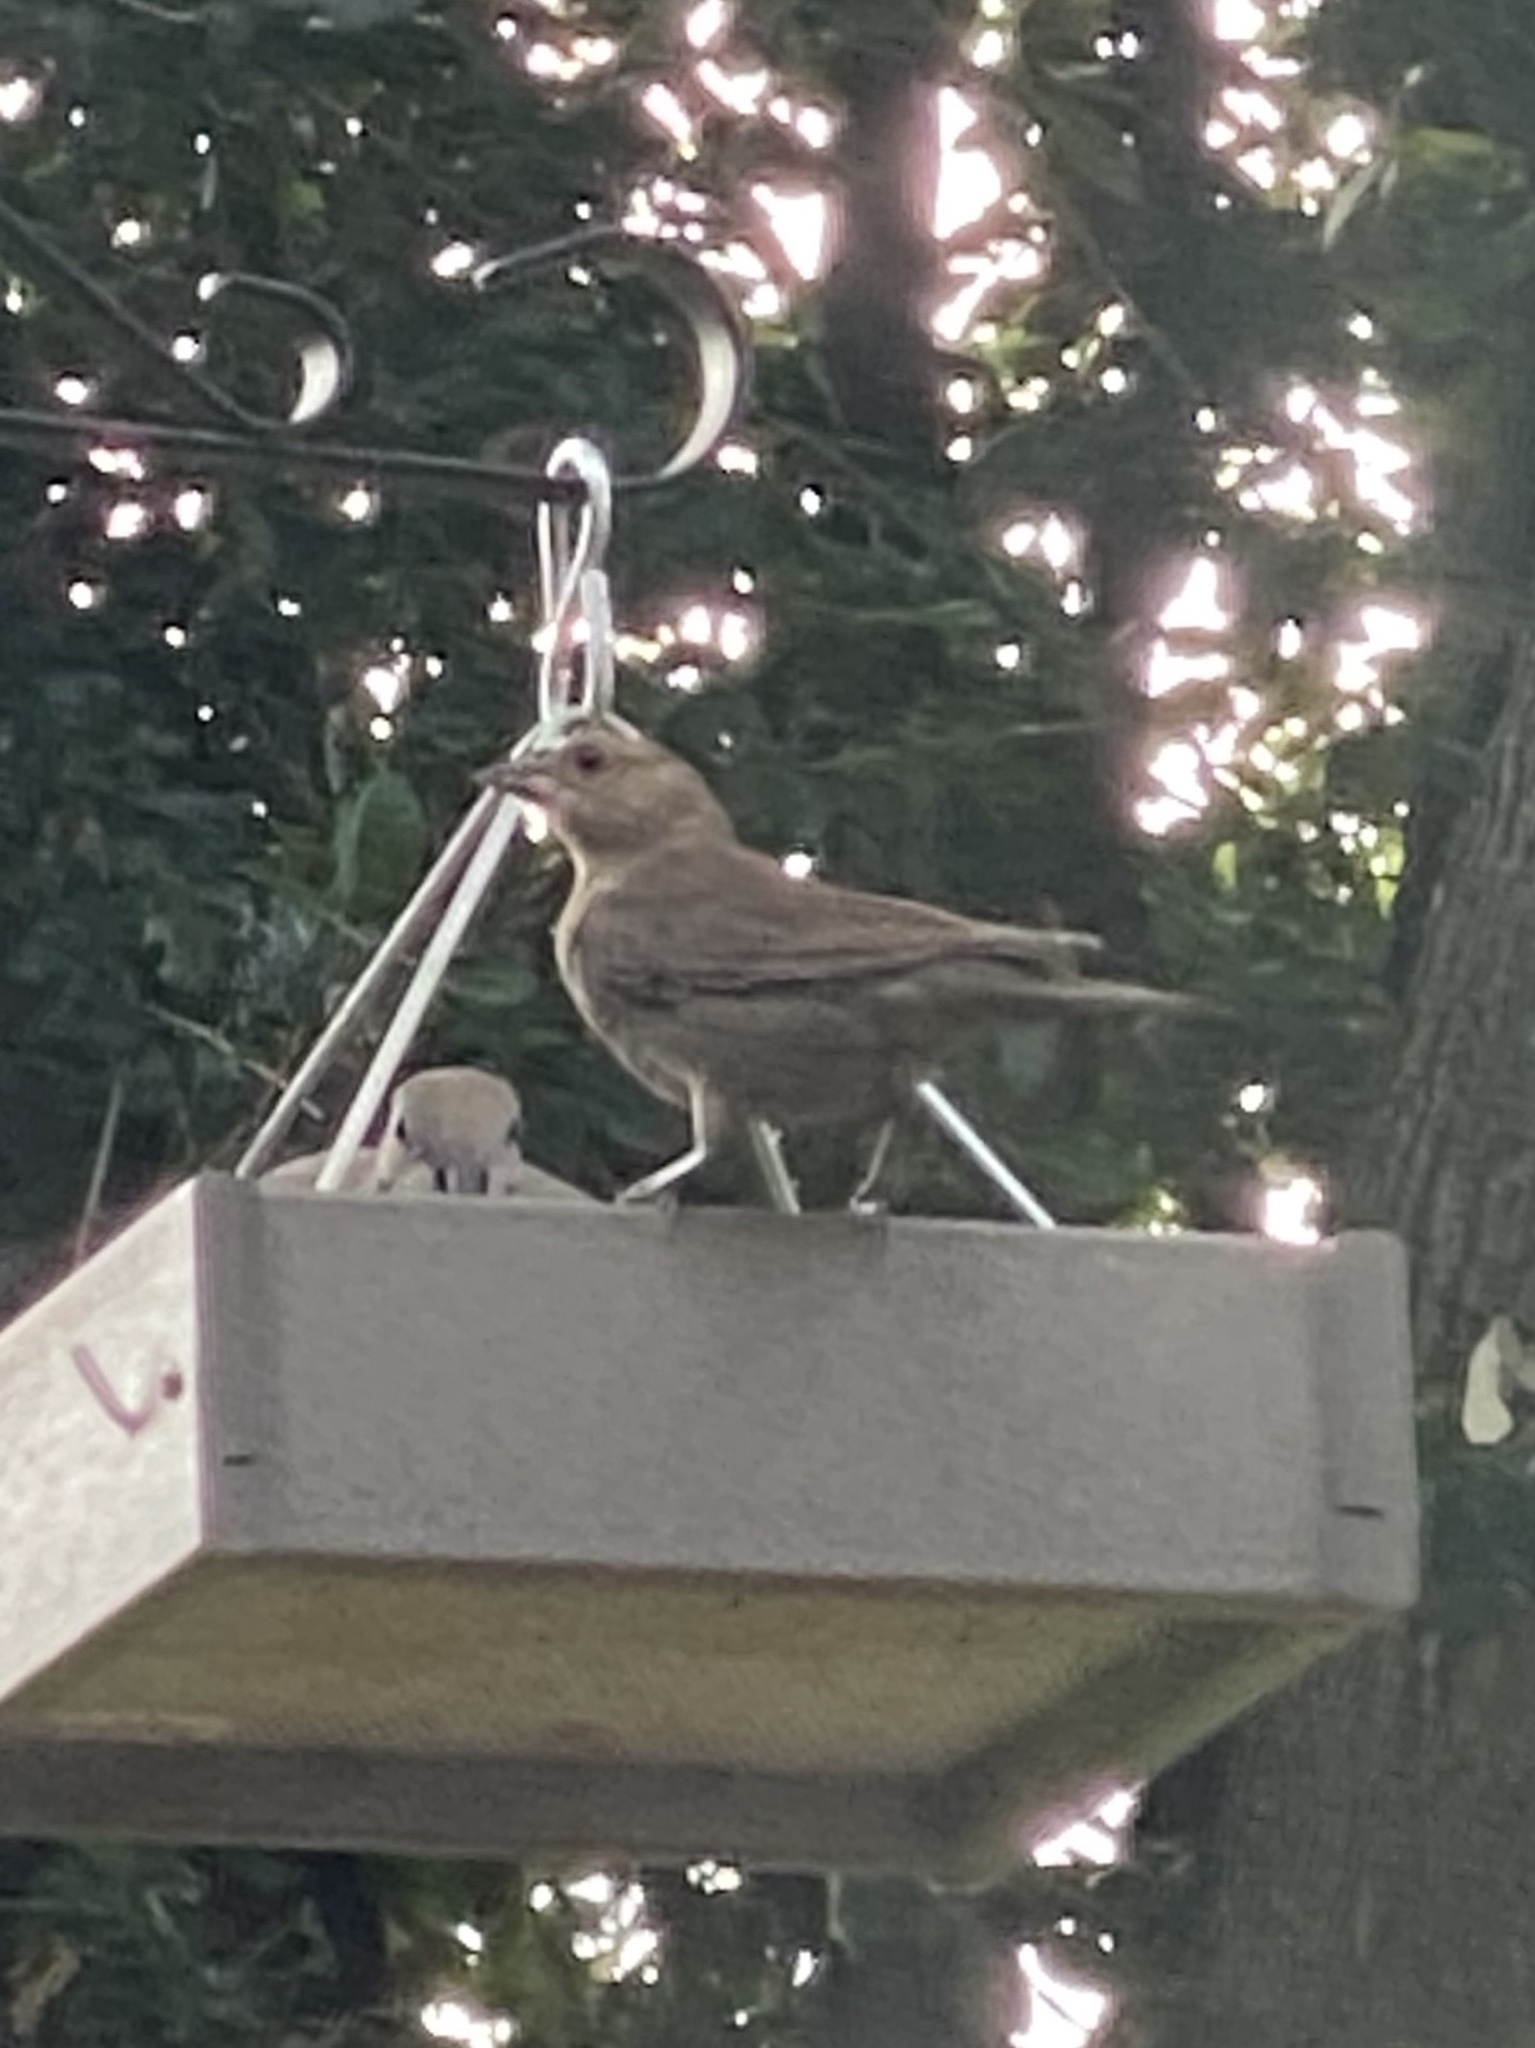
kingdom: Animalia
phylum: Chordata
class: Aves
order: Passeriformes
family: Icteridae
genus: Molothrus
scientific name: Molothrus ater
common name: Brown-headed cowbird
